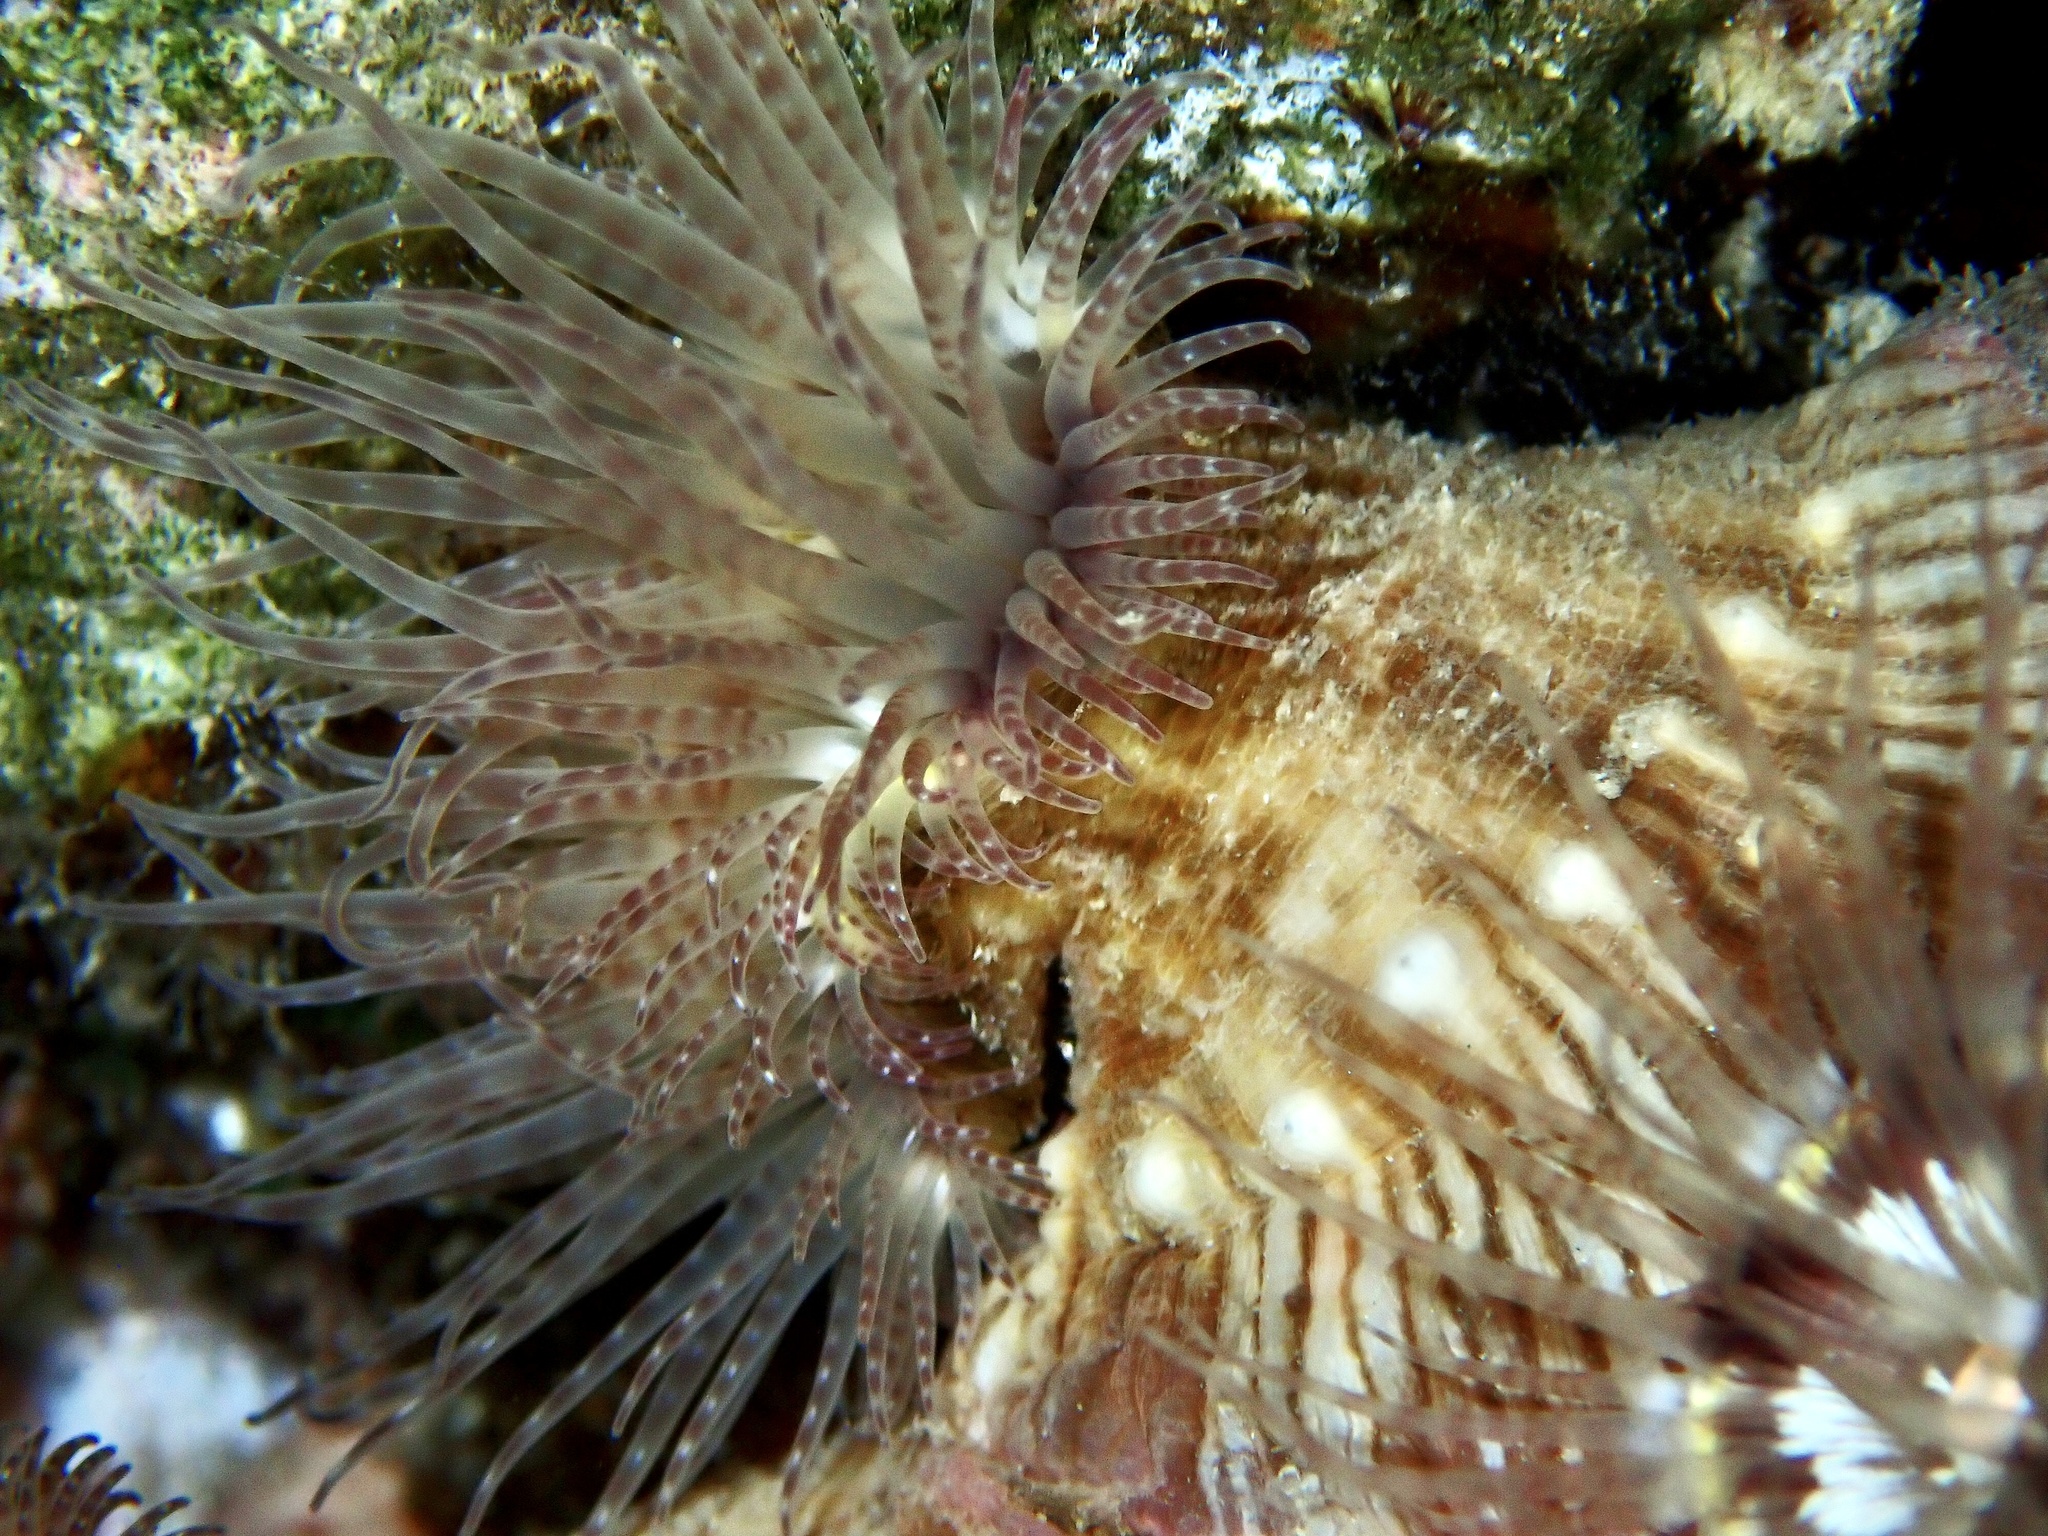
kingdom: Animalia
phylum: Cnidaria
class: Anthozoa
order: Actiniaria
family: Hormathiidae
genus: Calliactis
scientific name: Calliactis polypus
